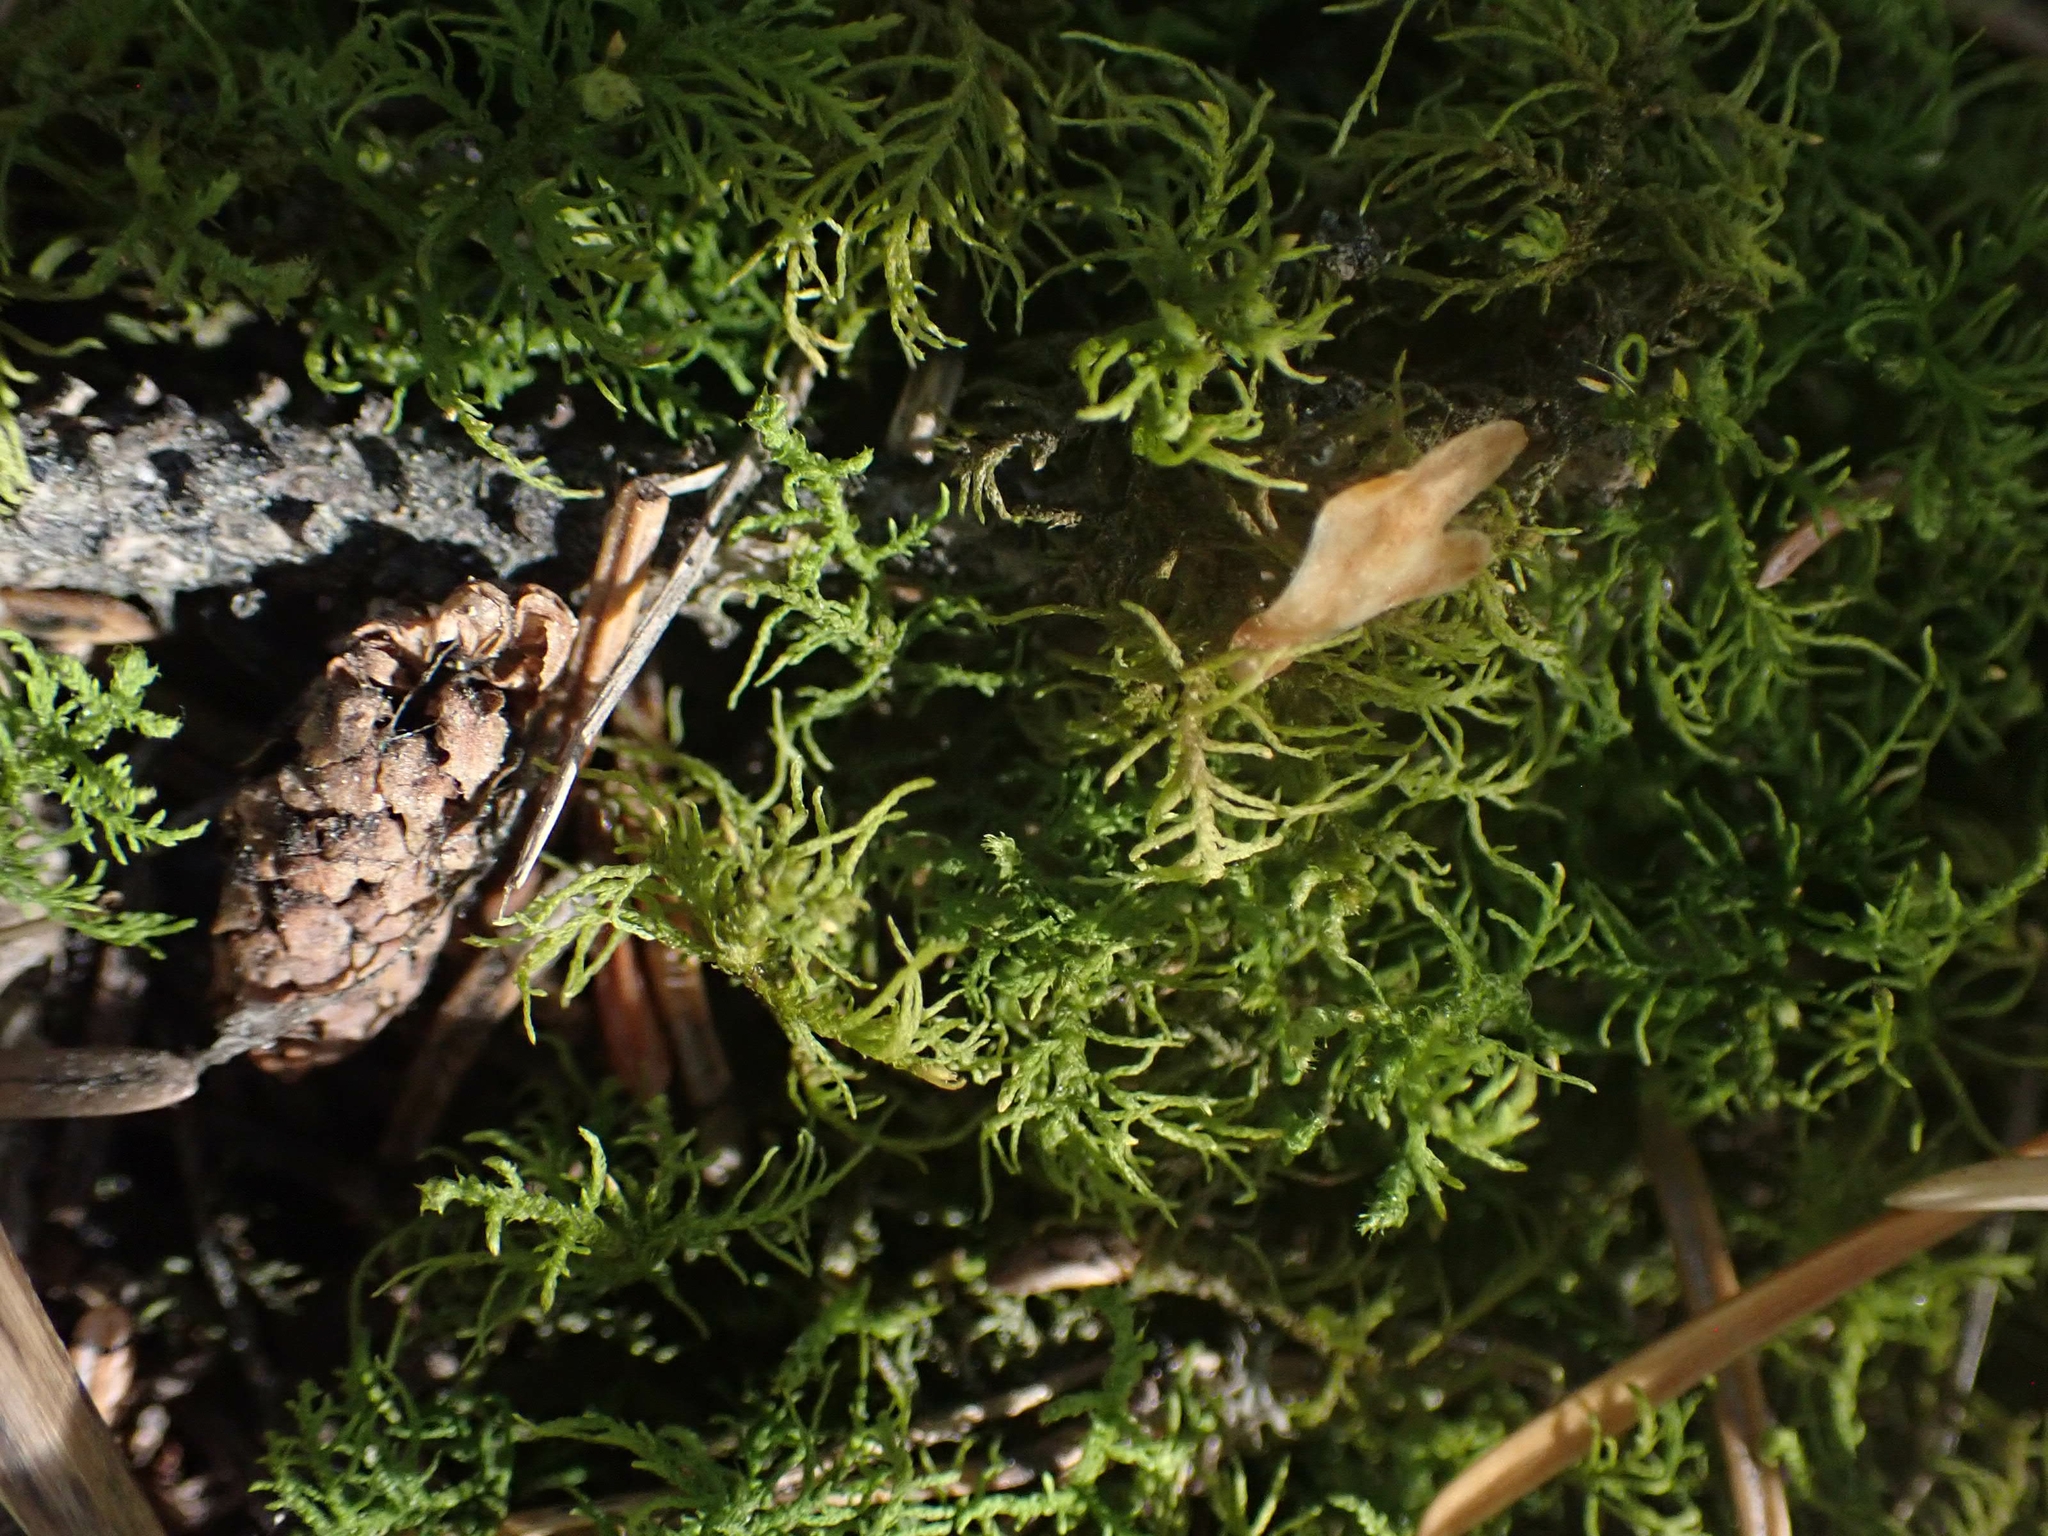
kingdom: Plantae
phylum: Bryophyta
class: Bryopsida
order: Hypnales
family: Thuidiaceae
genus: Abietinella
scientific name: Abietinella abietina
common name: Wiry fern moss
